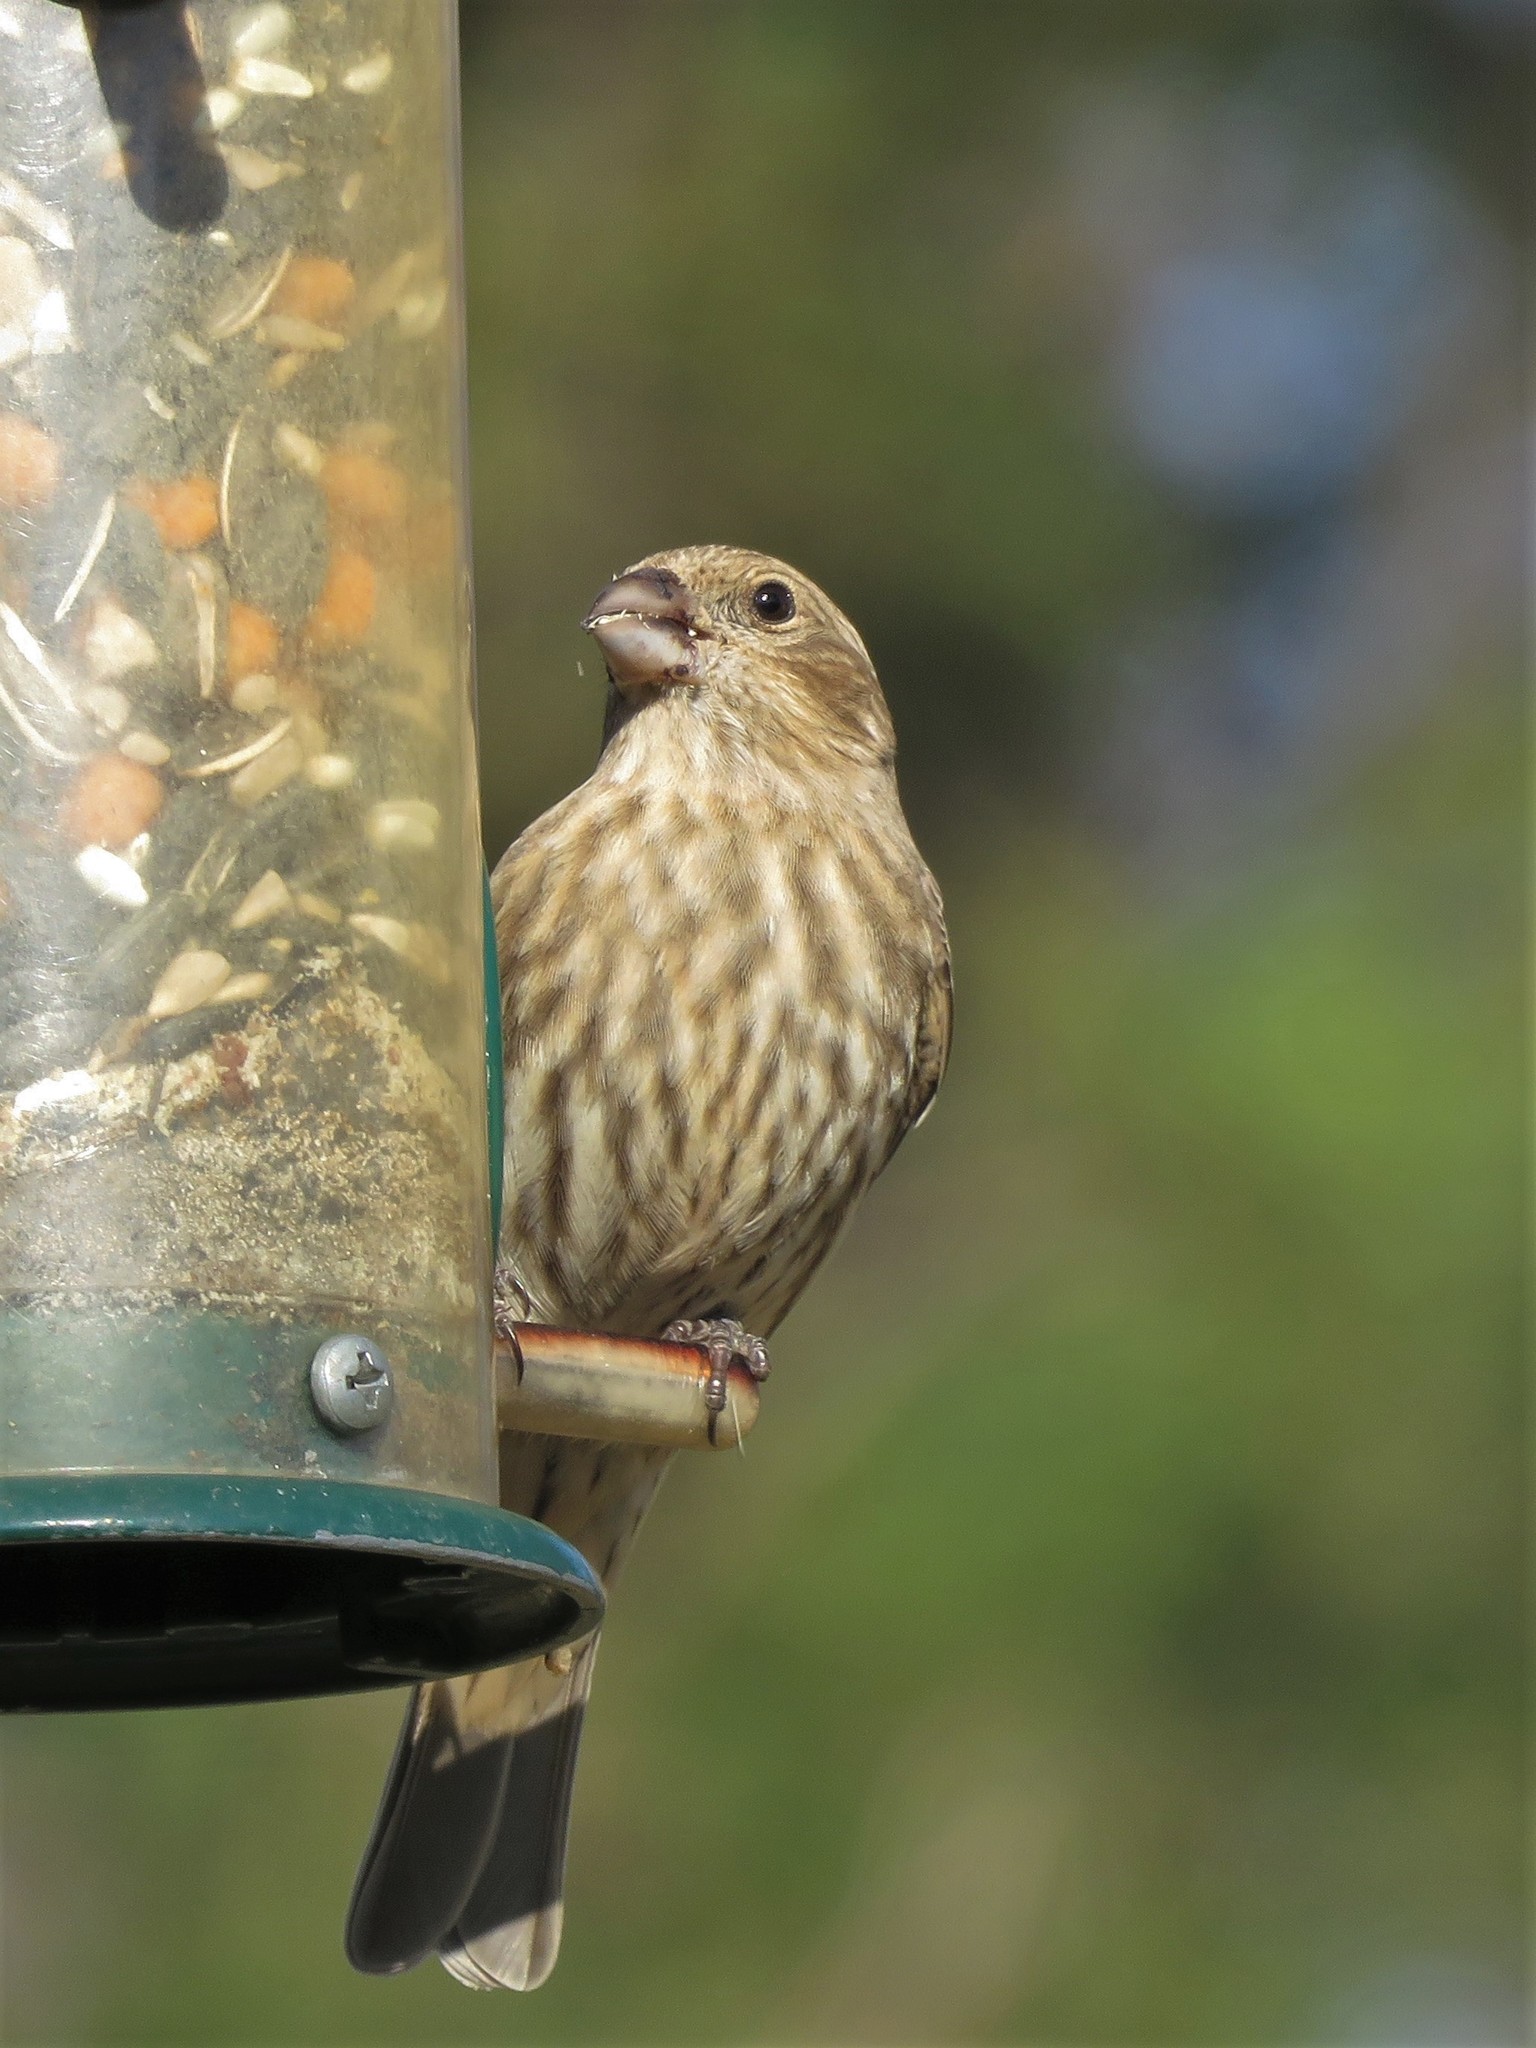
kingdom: Animalia
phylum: Chordata
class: Aves
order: Passeriformes
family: Fringillidae
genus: Haemorhous
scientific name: Haemorhous mexicanus
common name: House finch
